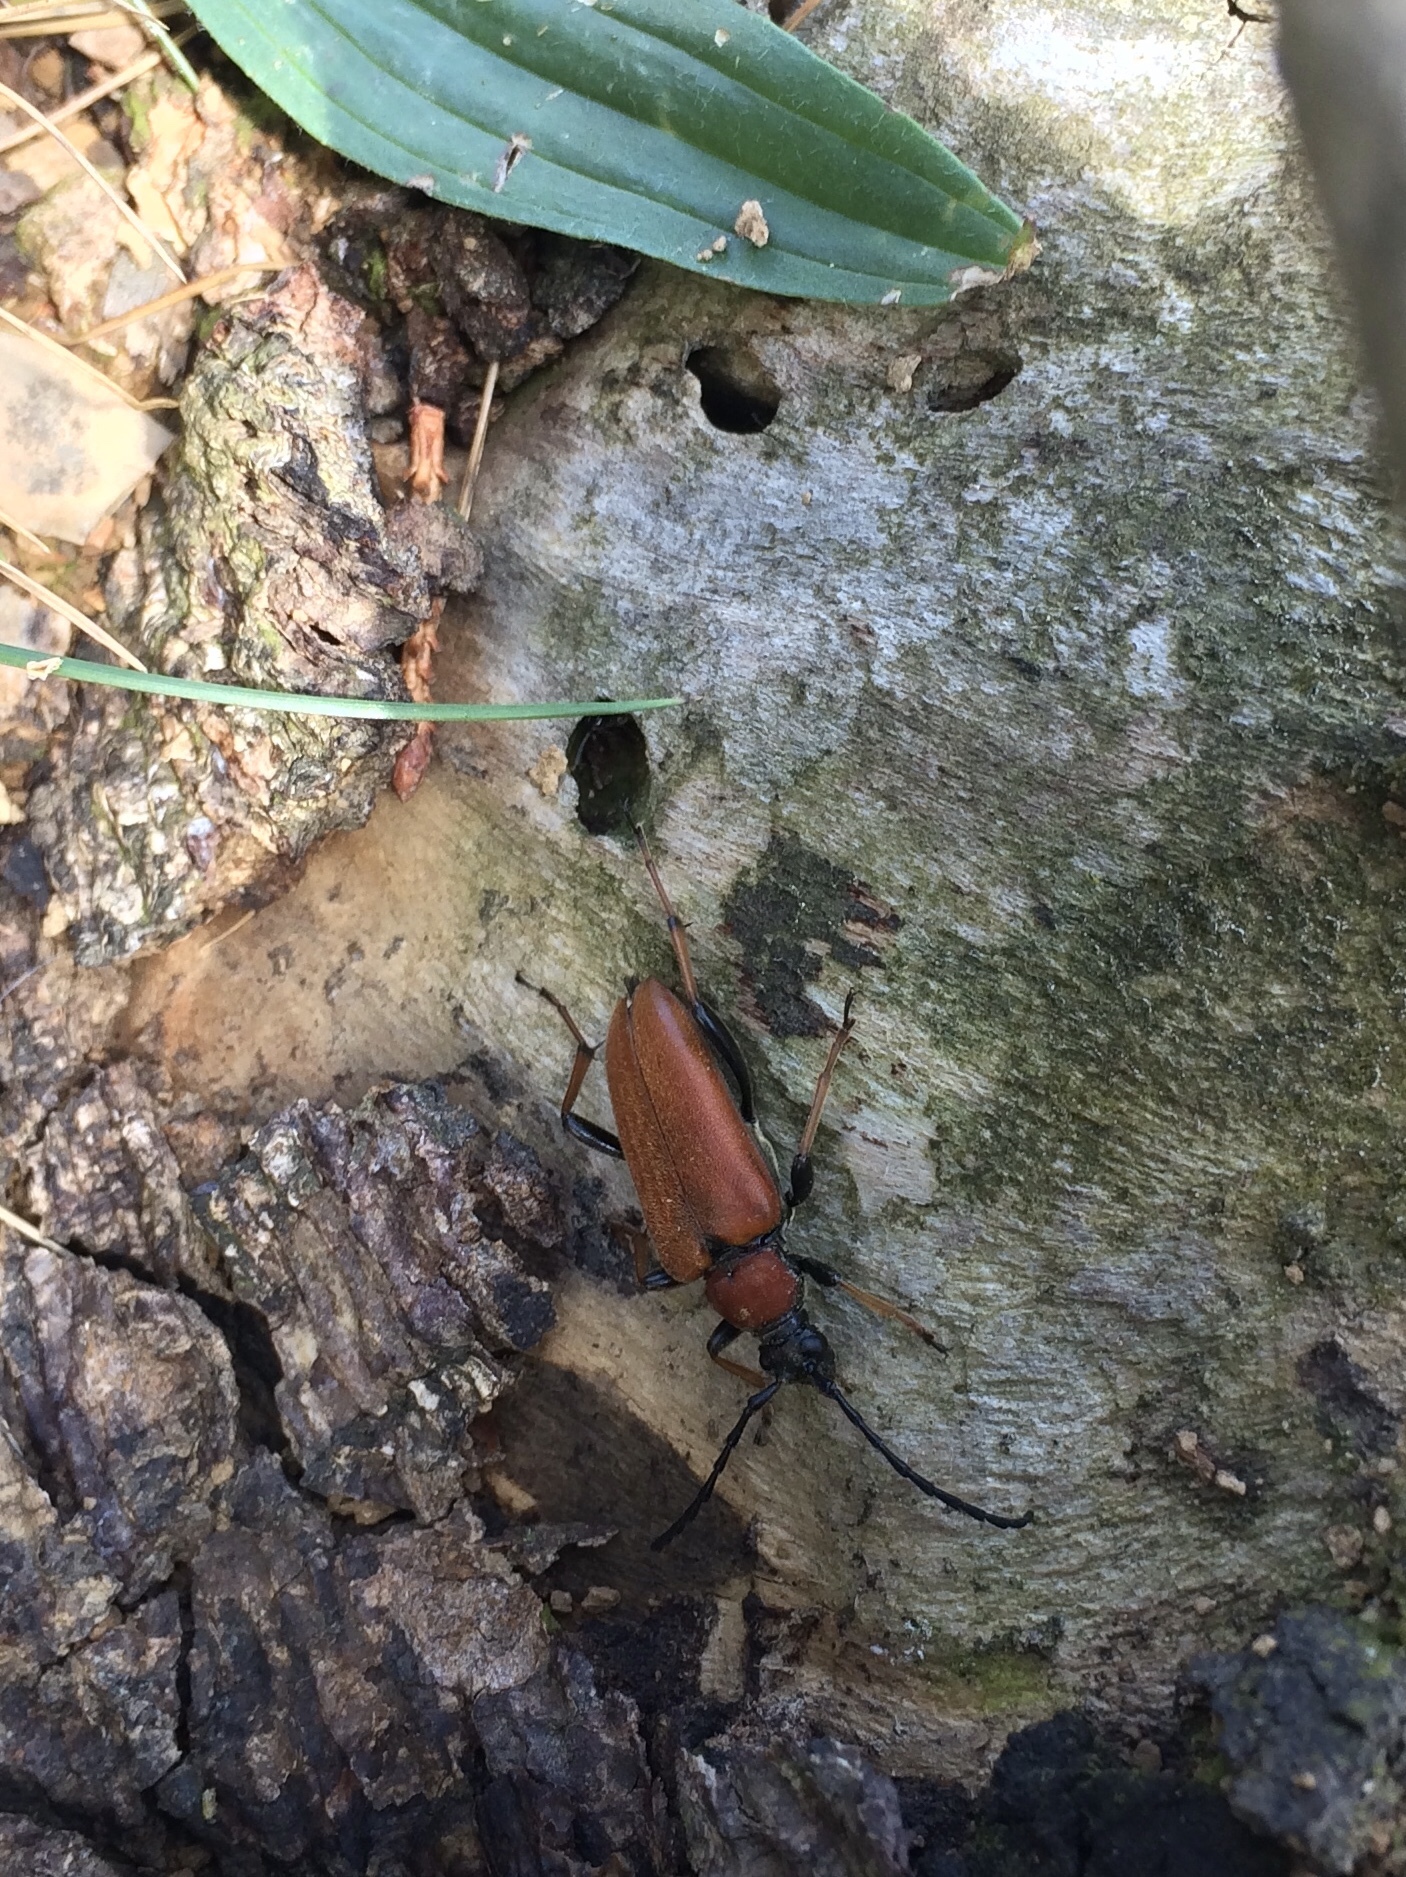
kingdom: Animalia
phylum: Arthropoda
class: Insecta
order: Coleoptera
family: Cerambycidae
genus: Stictoleptura
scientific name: Stictoleptura rubra
